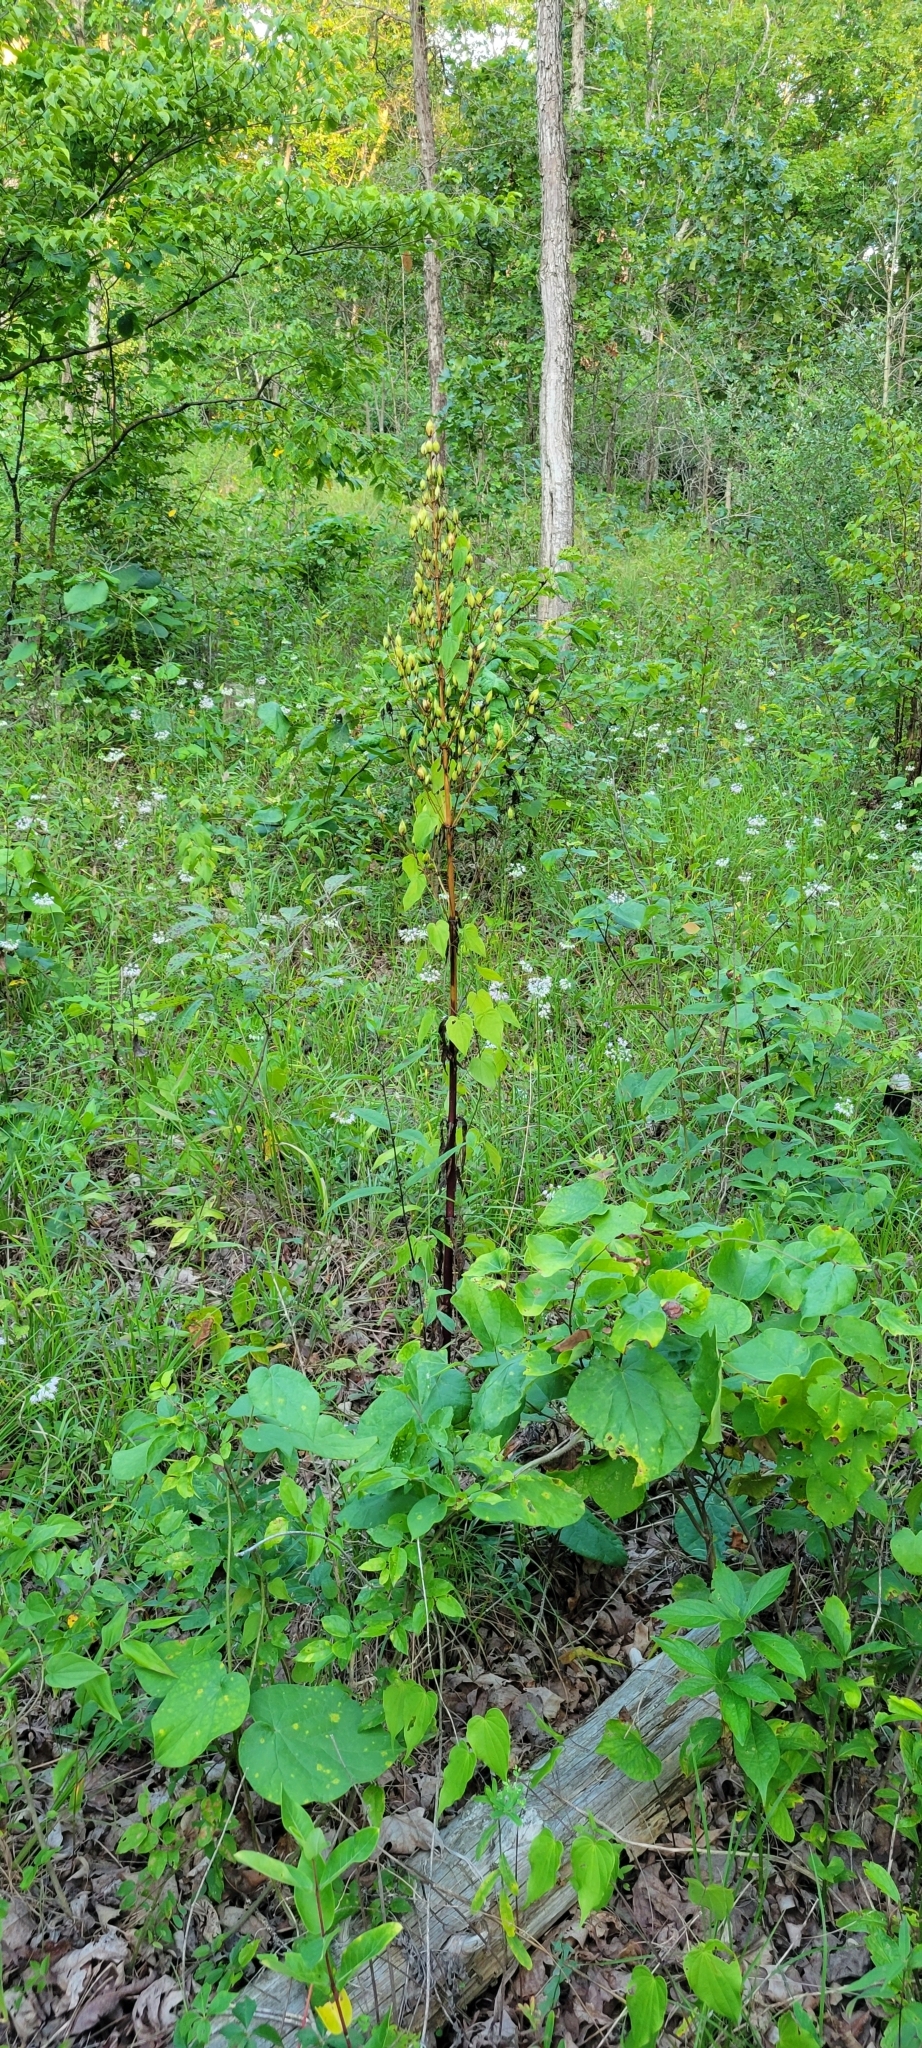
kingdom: Plantae
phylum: Tracheophyta
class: Magnoliopsida
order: Gentianales
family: Gentianaceae
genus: Frasera
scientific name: Frasera caroliniensis
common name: American columbo
